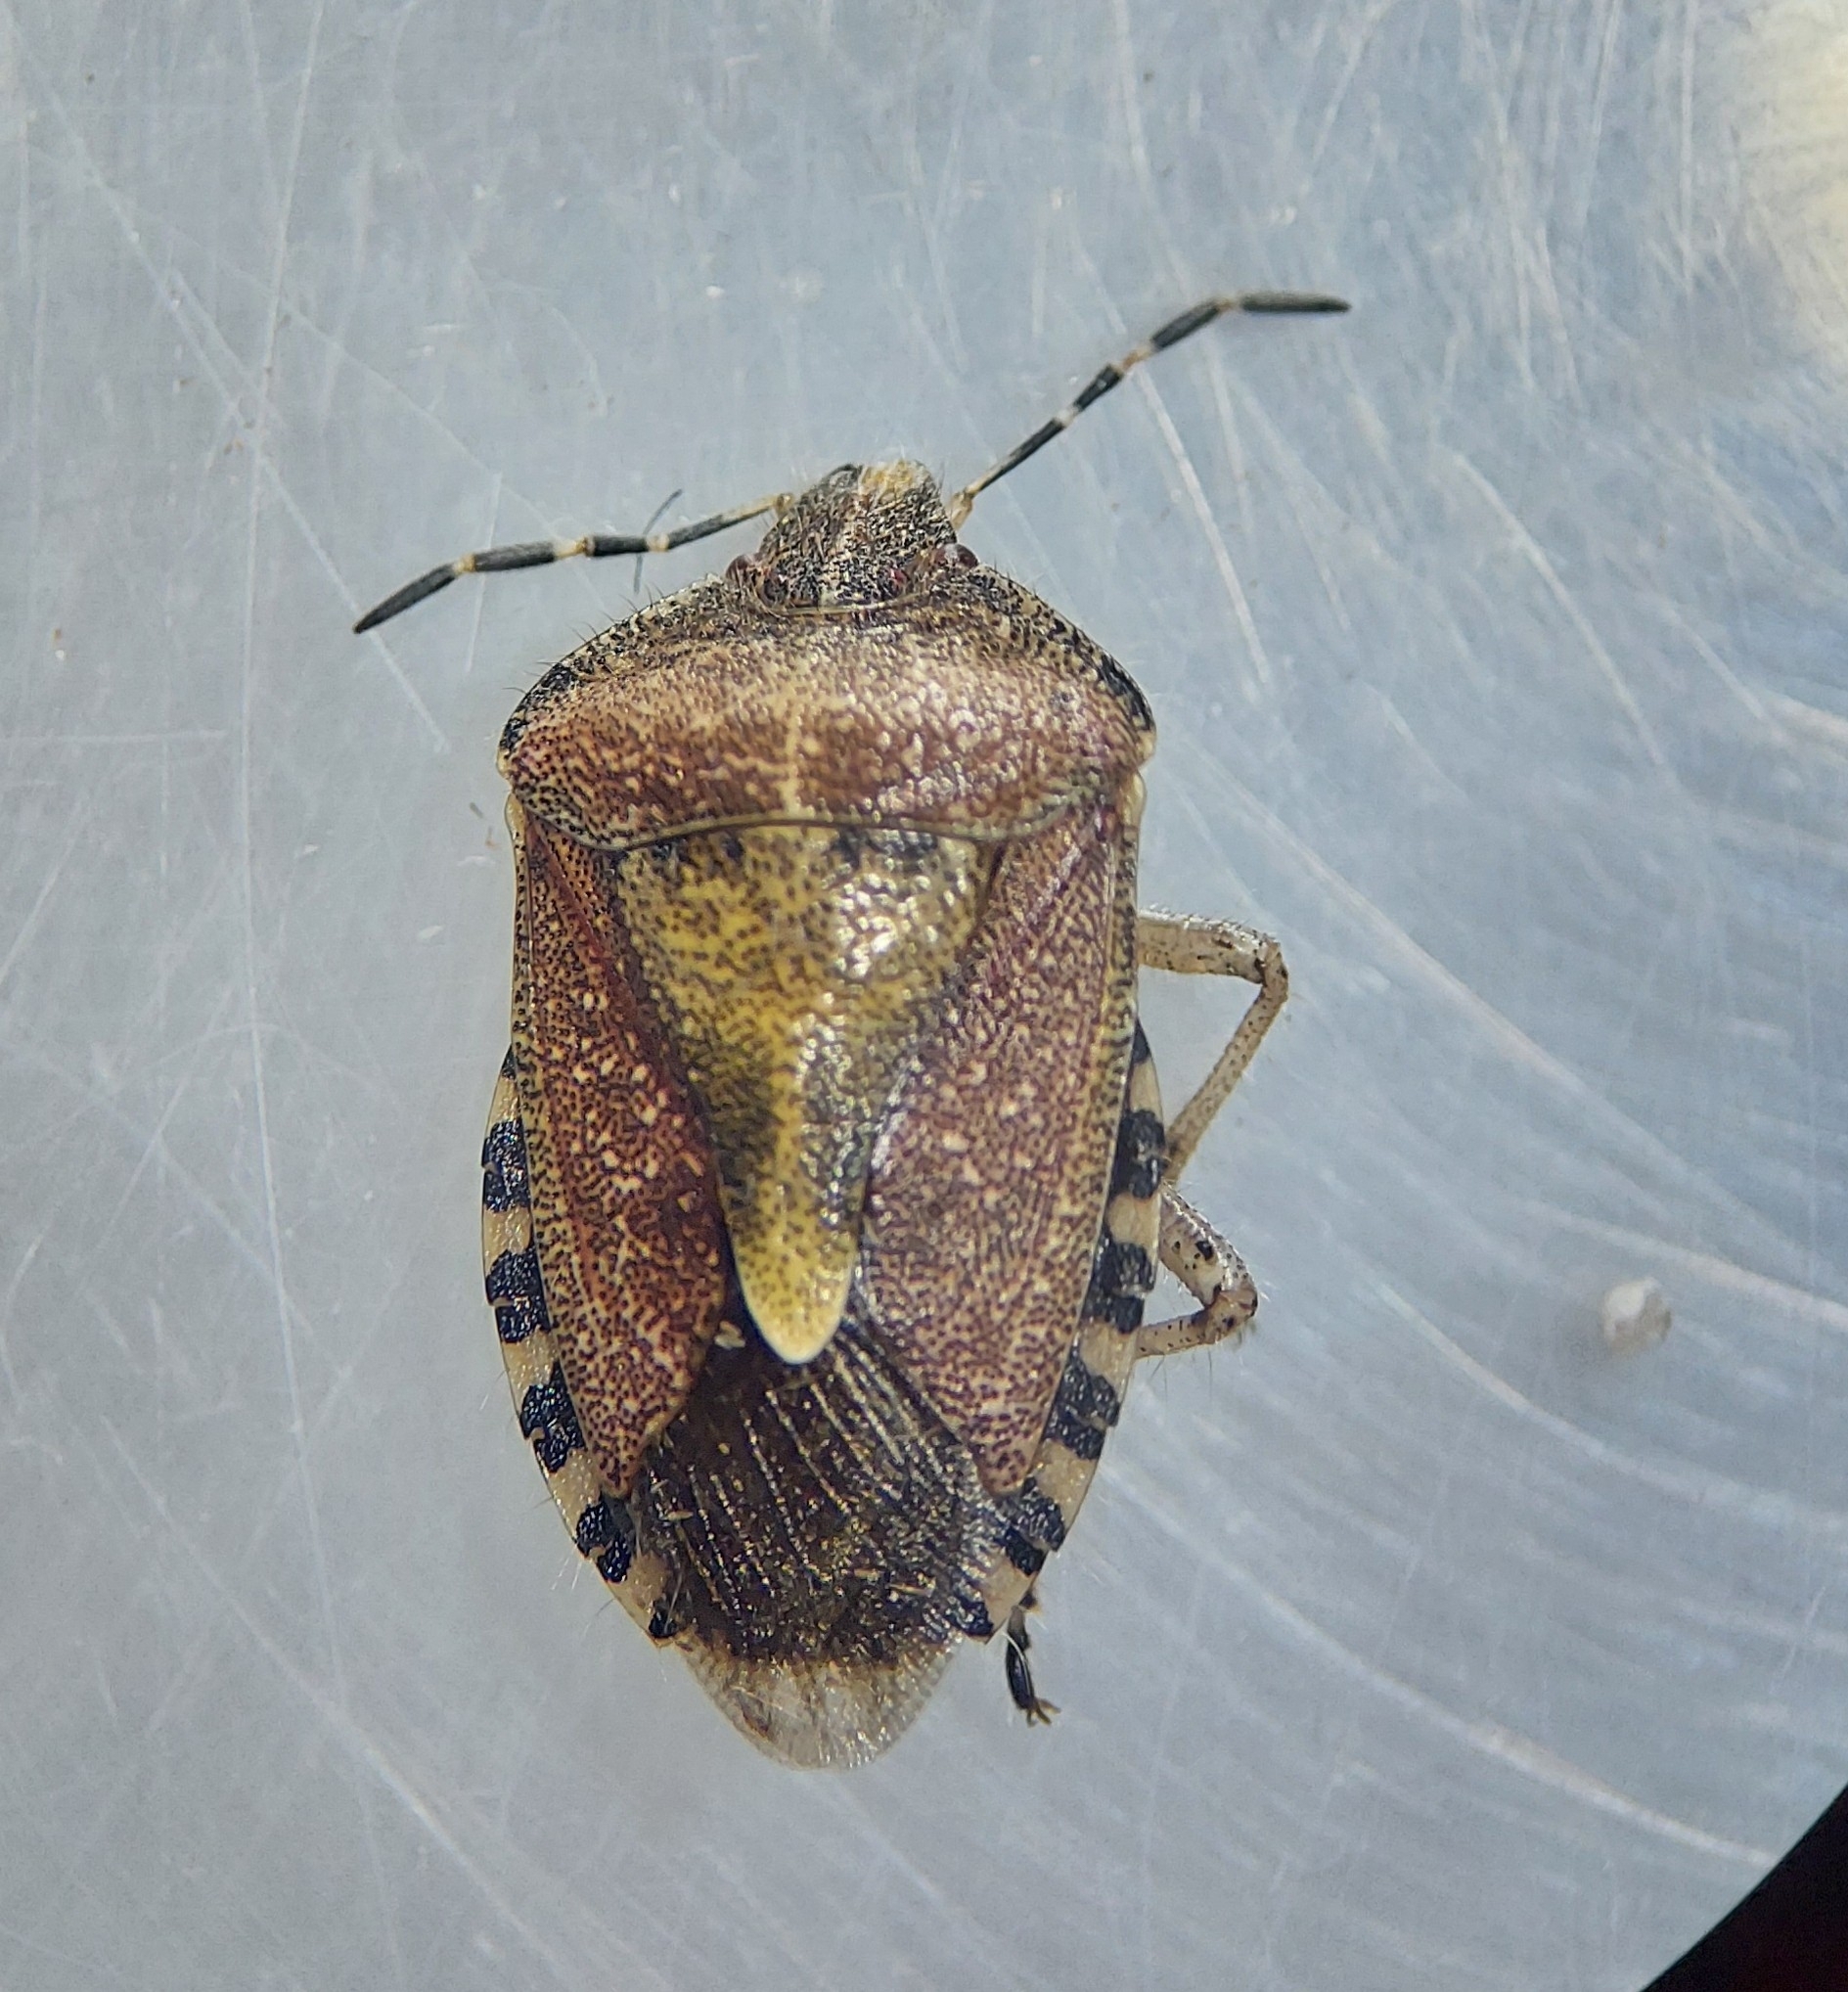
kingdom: Animalia
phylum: Arthropoda
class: Insecta
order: Hemiptera
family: Pentatomidae
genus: Dolycoris
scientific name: Dolycoris baccarum
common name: Sloe bug
